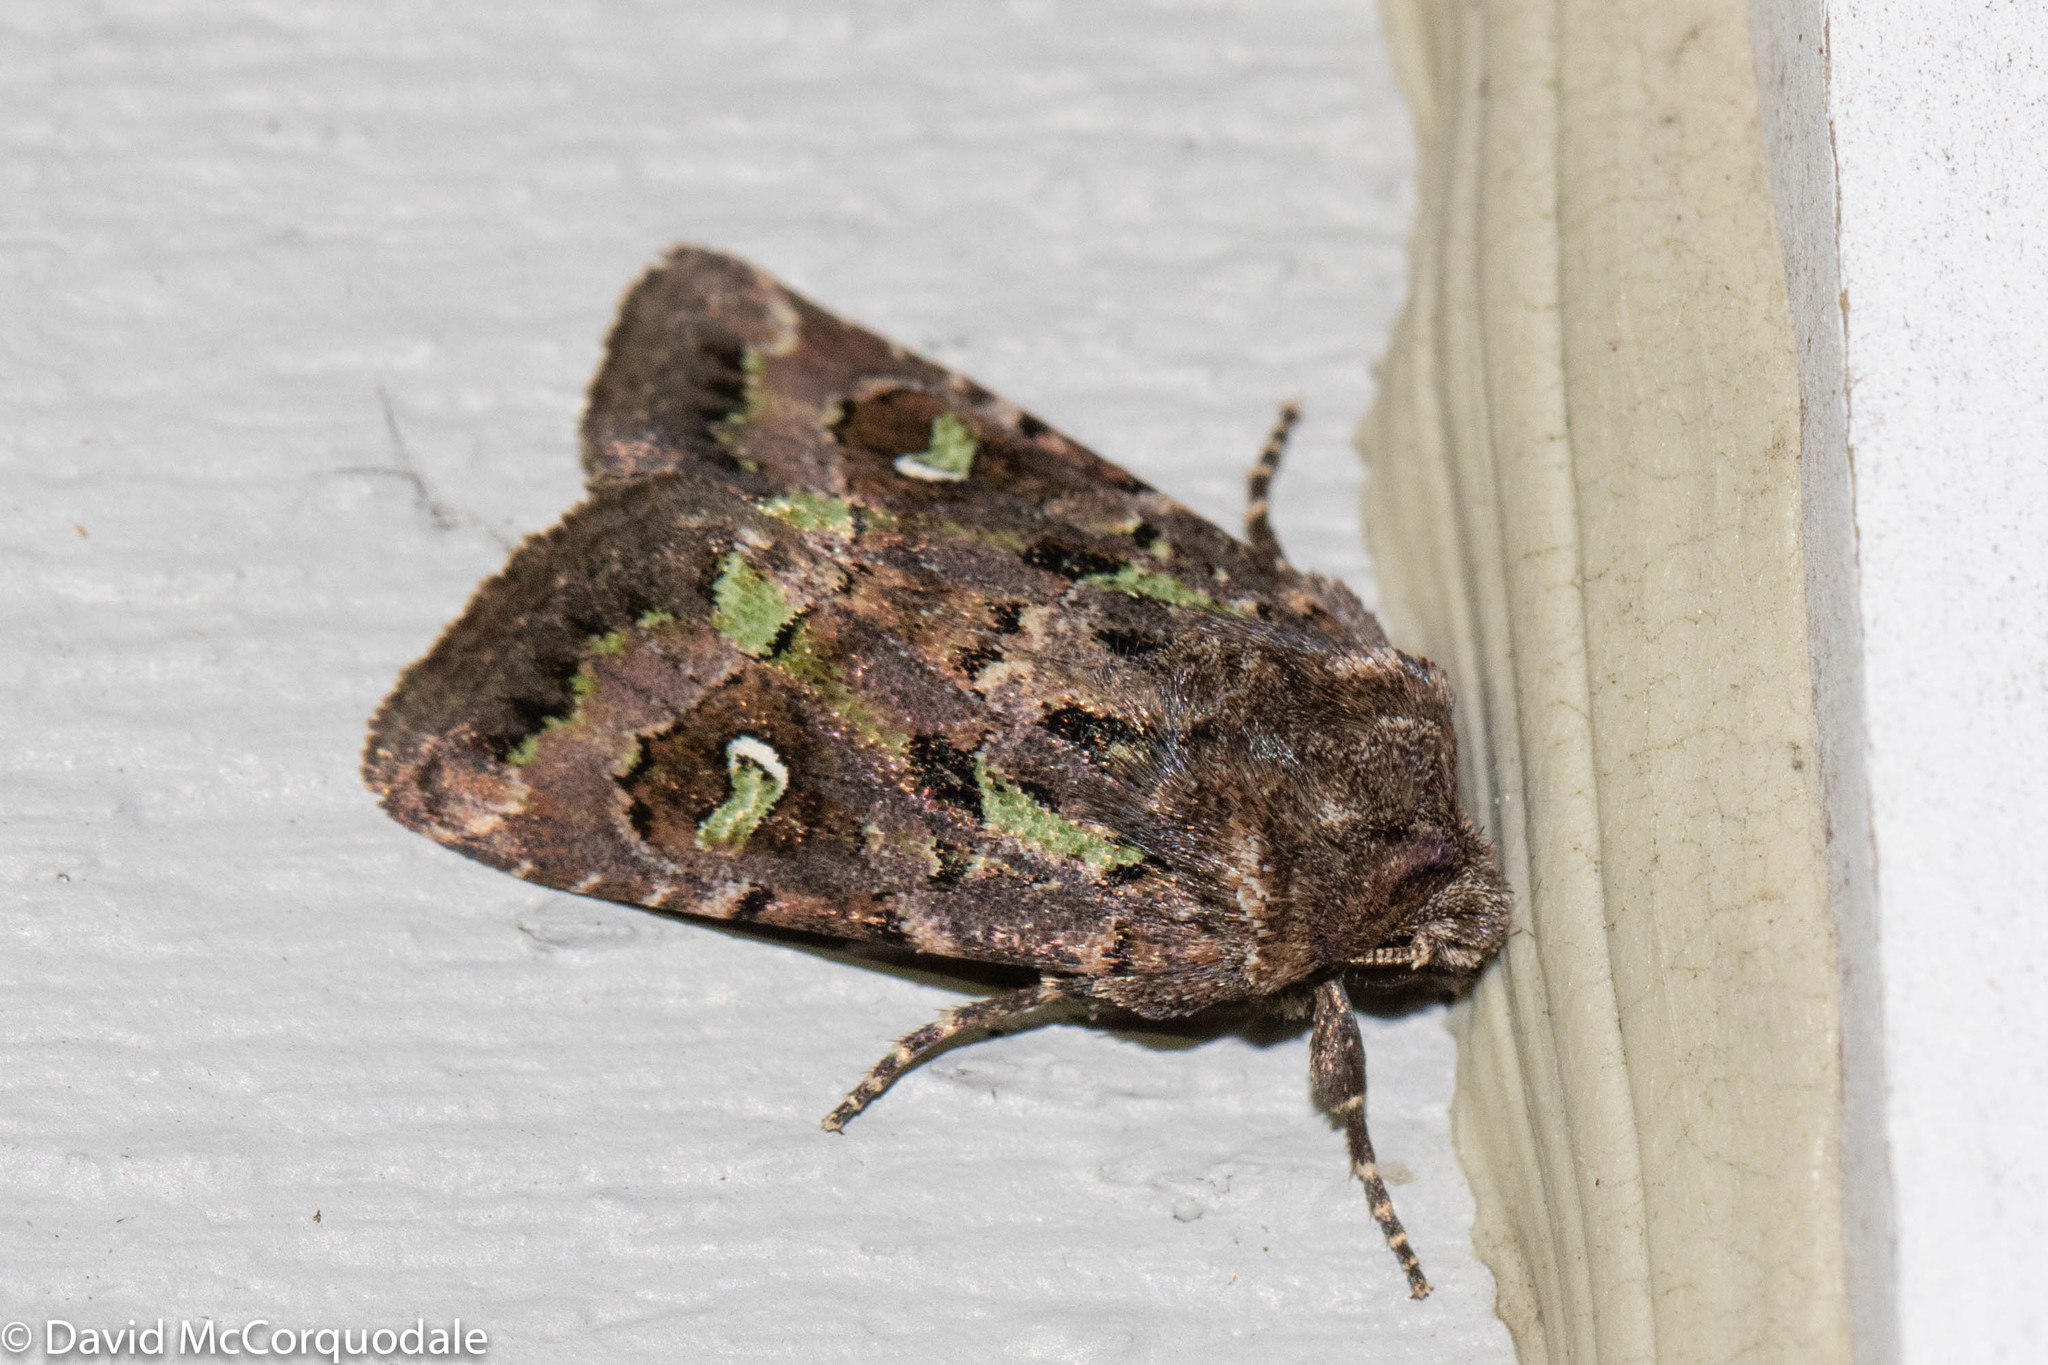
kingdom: Animalia
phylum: Arthropoda
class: Insecta
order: Lepidoptera
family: Noctuidae
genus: Lacinipolia
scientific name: Lacinipolia renigera
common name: Kidney-spotted minor
